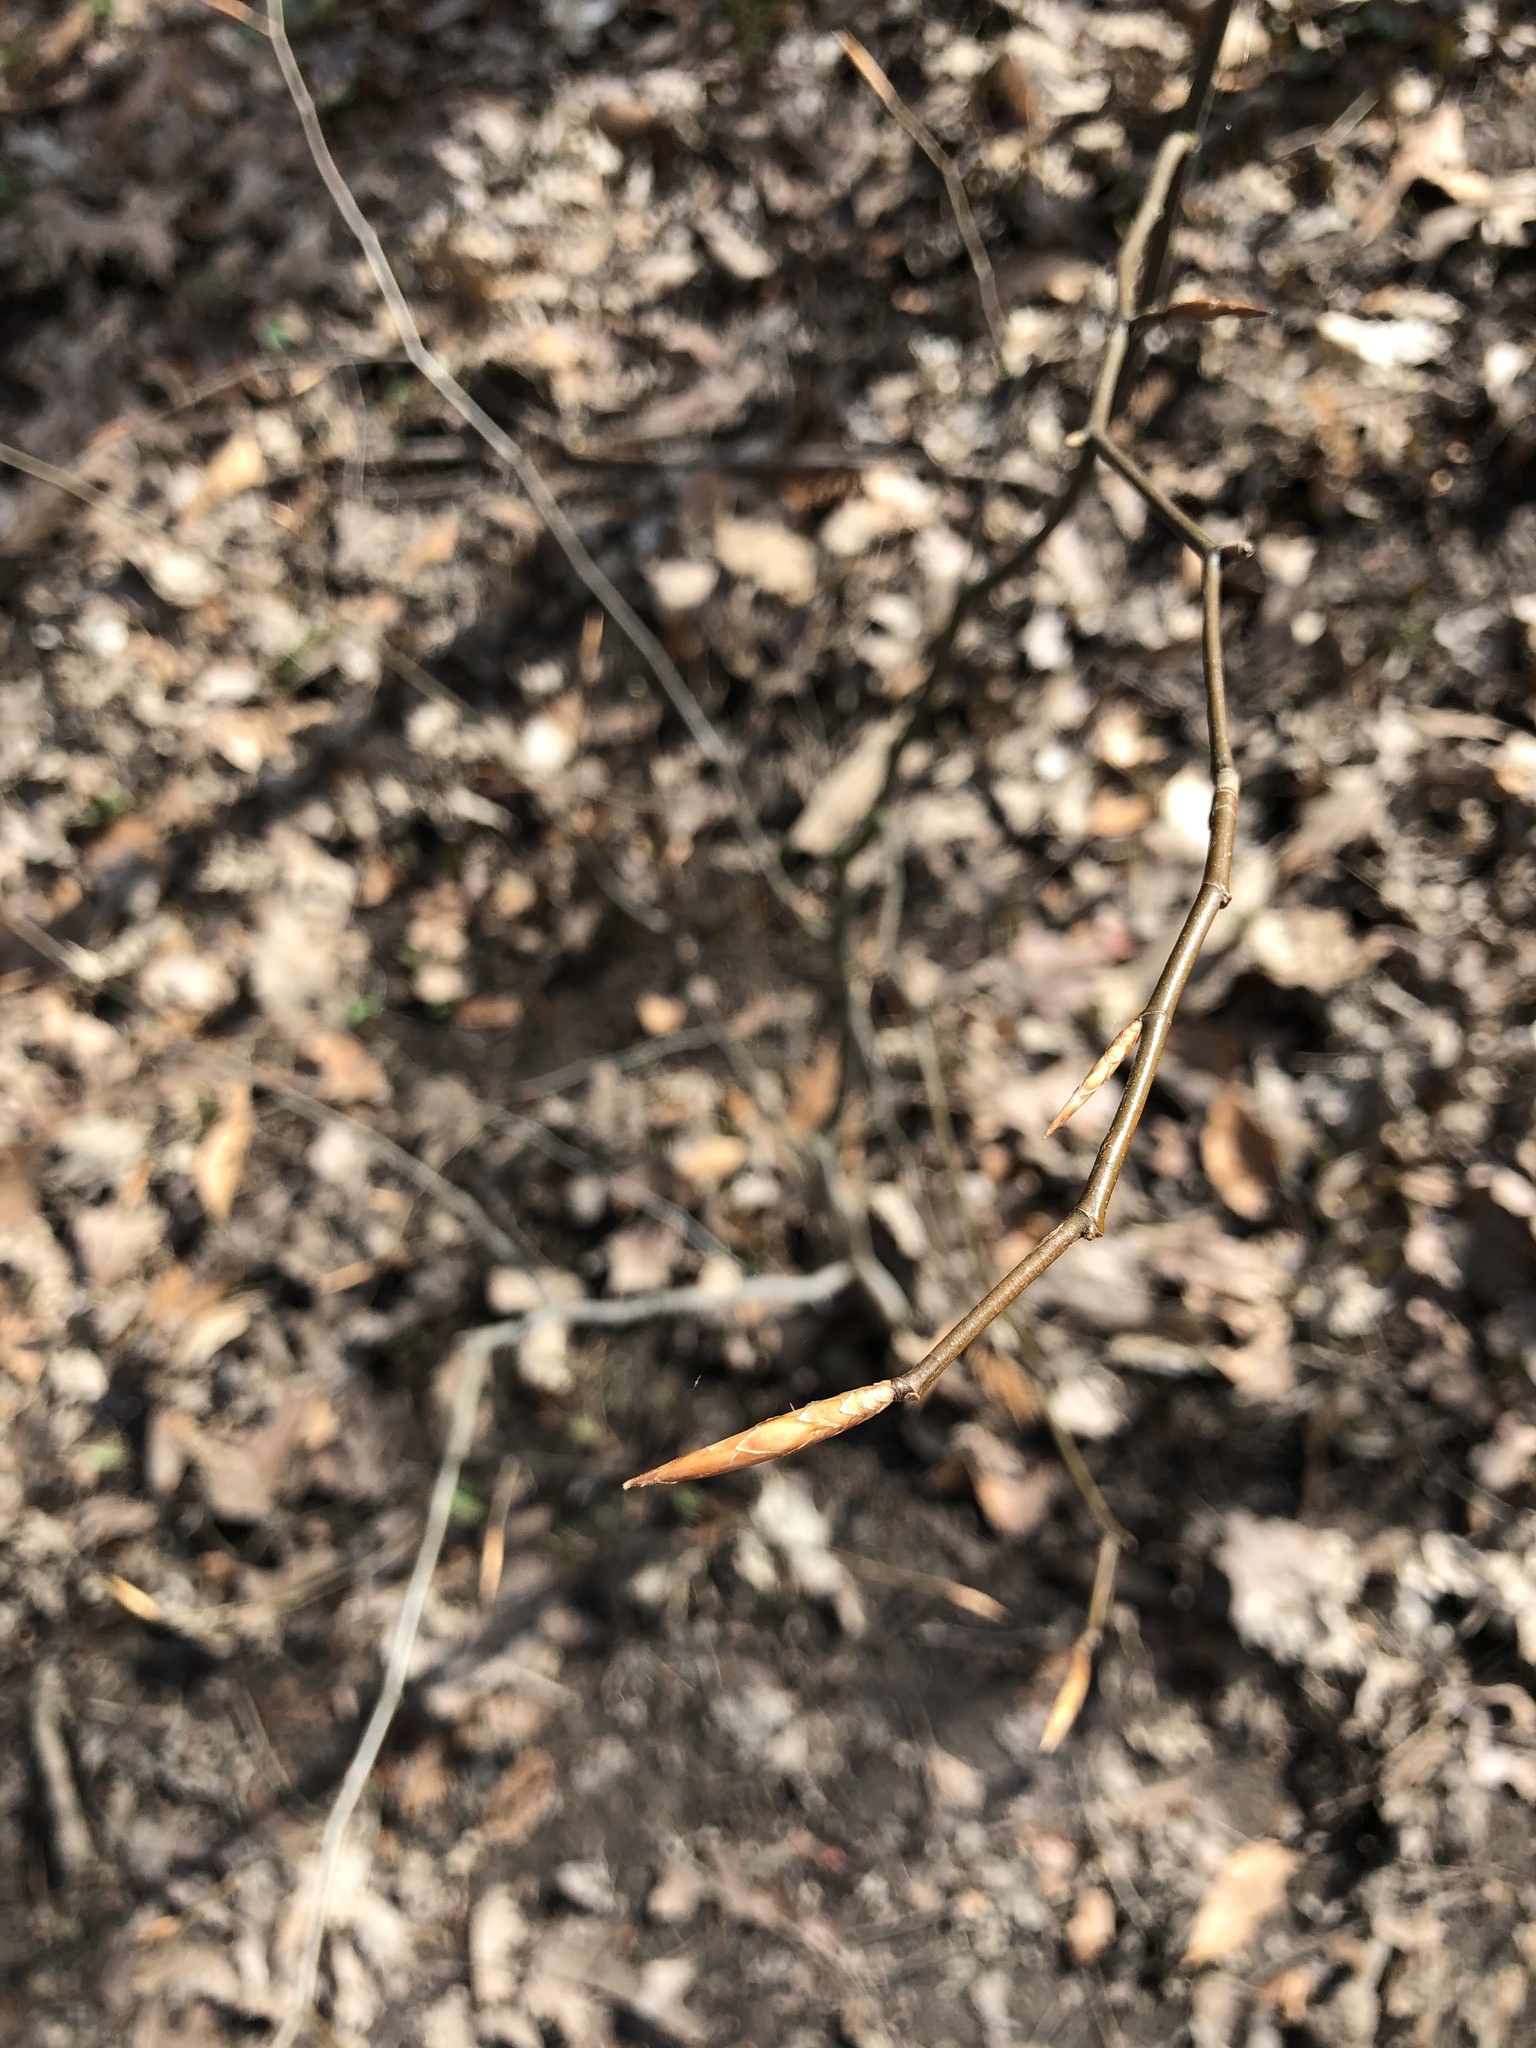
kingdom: Plantae
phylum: Tracheophyta
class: Magnoliopsida
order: Fagales
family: Fagaceae
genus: Fagus
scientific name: Fagus grandifolia
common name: American beech
